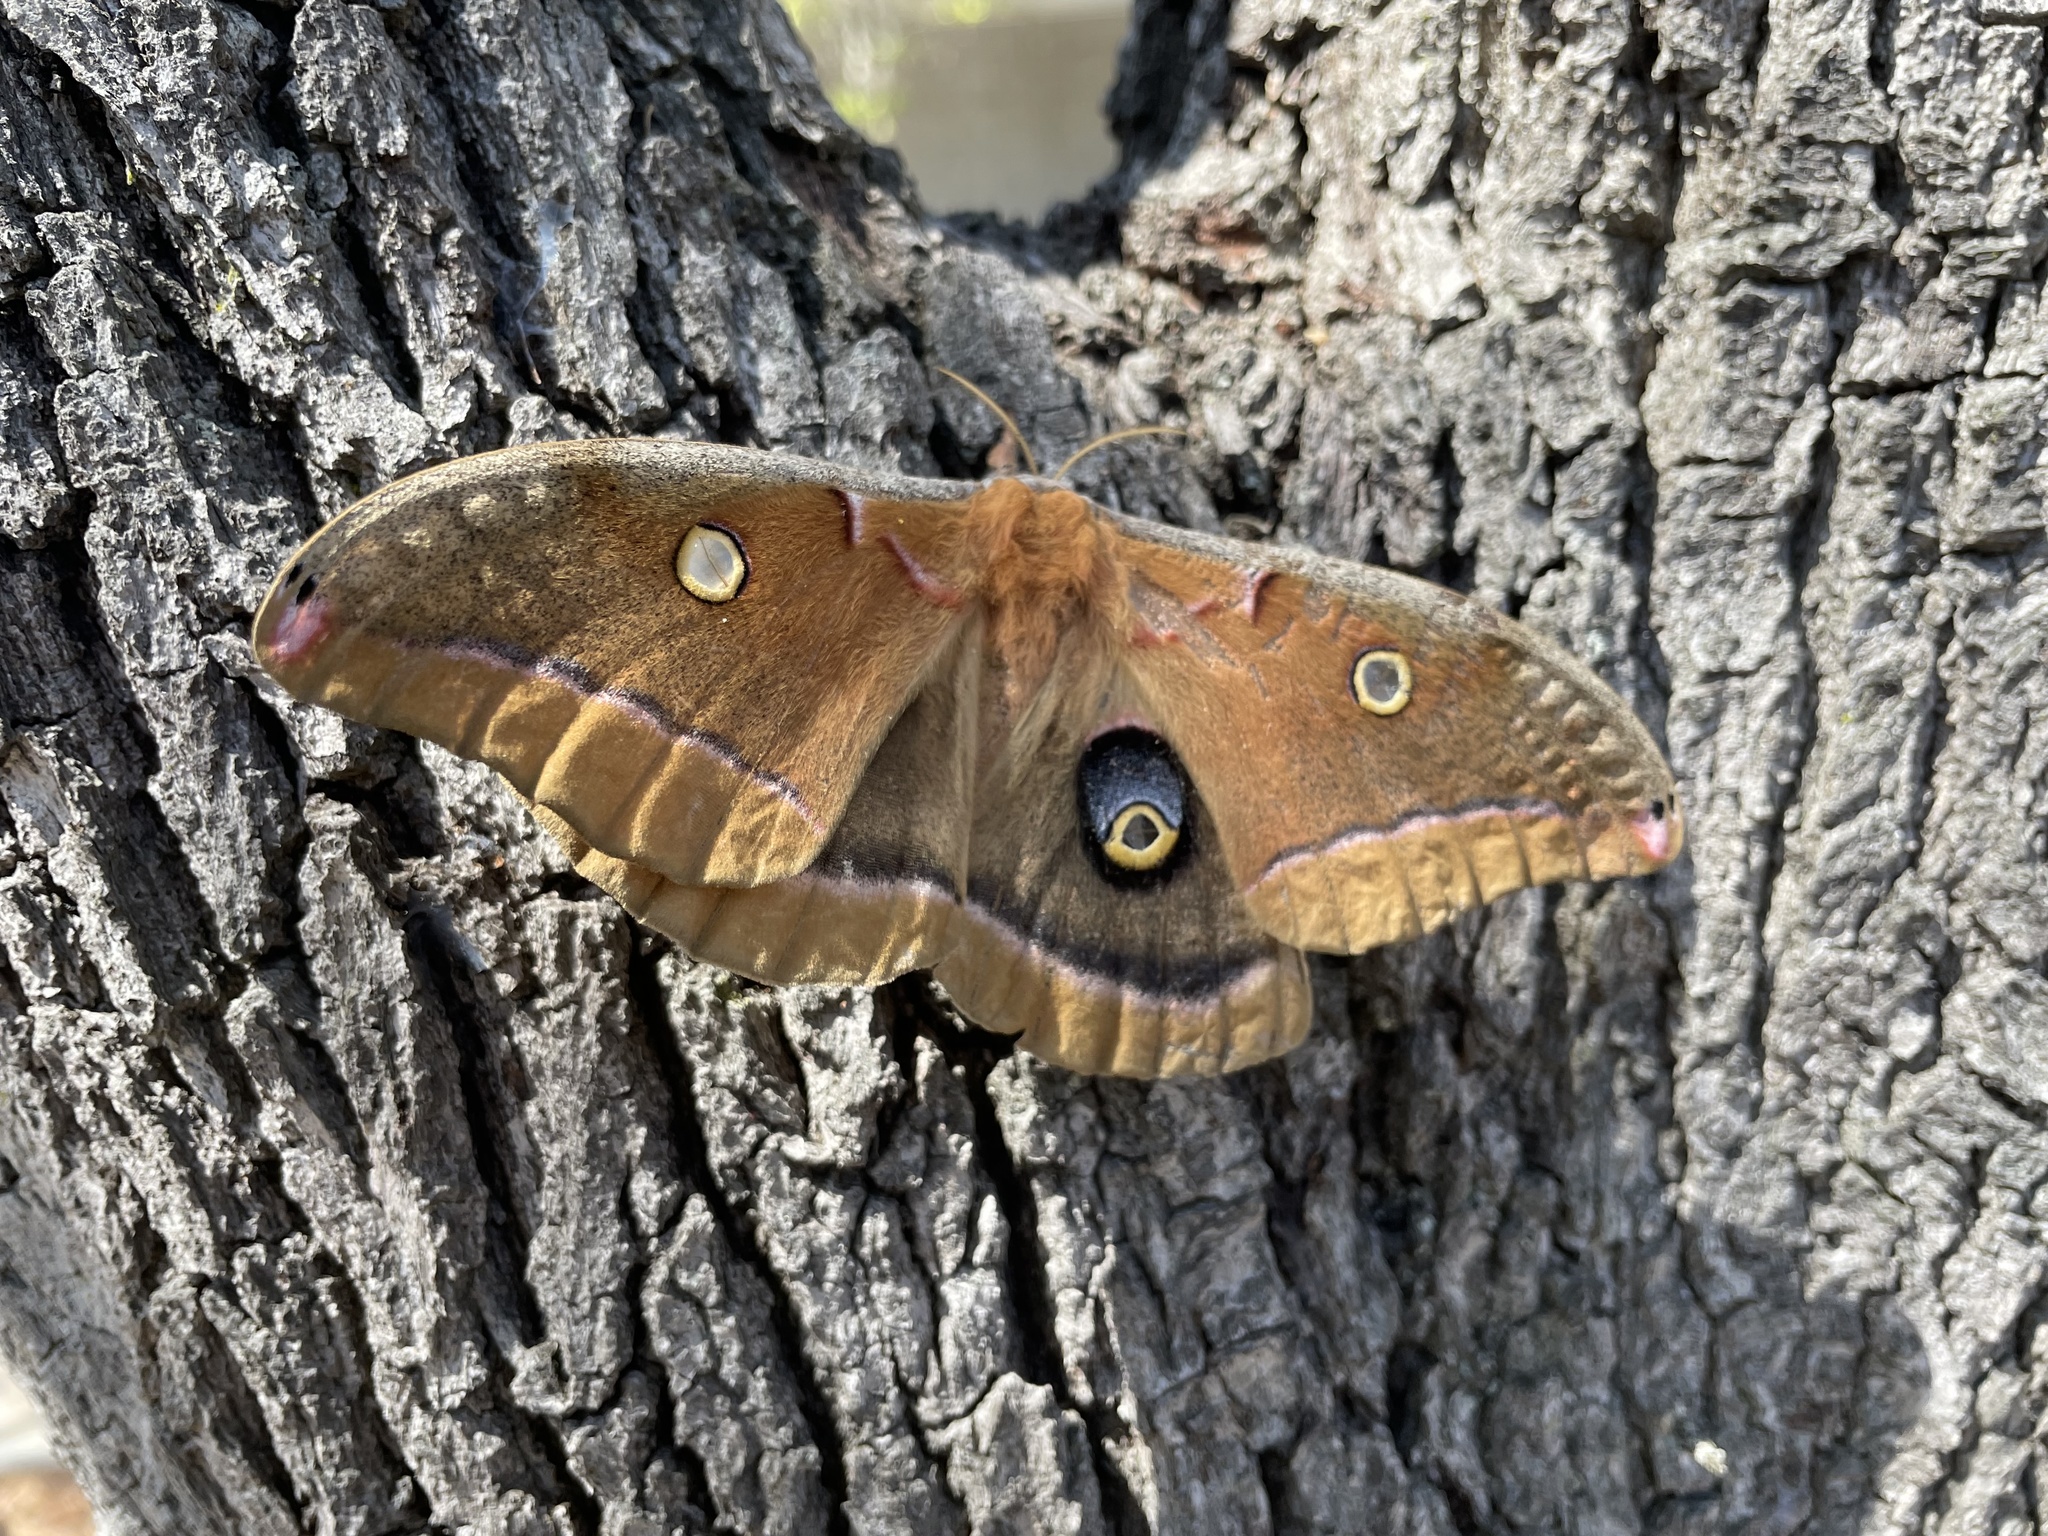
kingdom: Animalia
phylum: Arthropoda
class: Insecta
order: Lepidoptera
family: Saturniidae
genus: Antheraea
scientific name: Antheraea polyphemus
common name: Polyphemus moth
